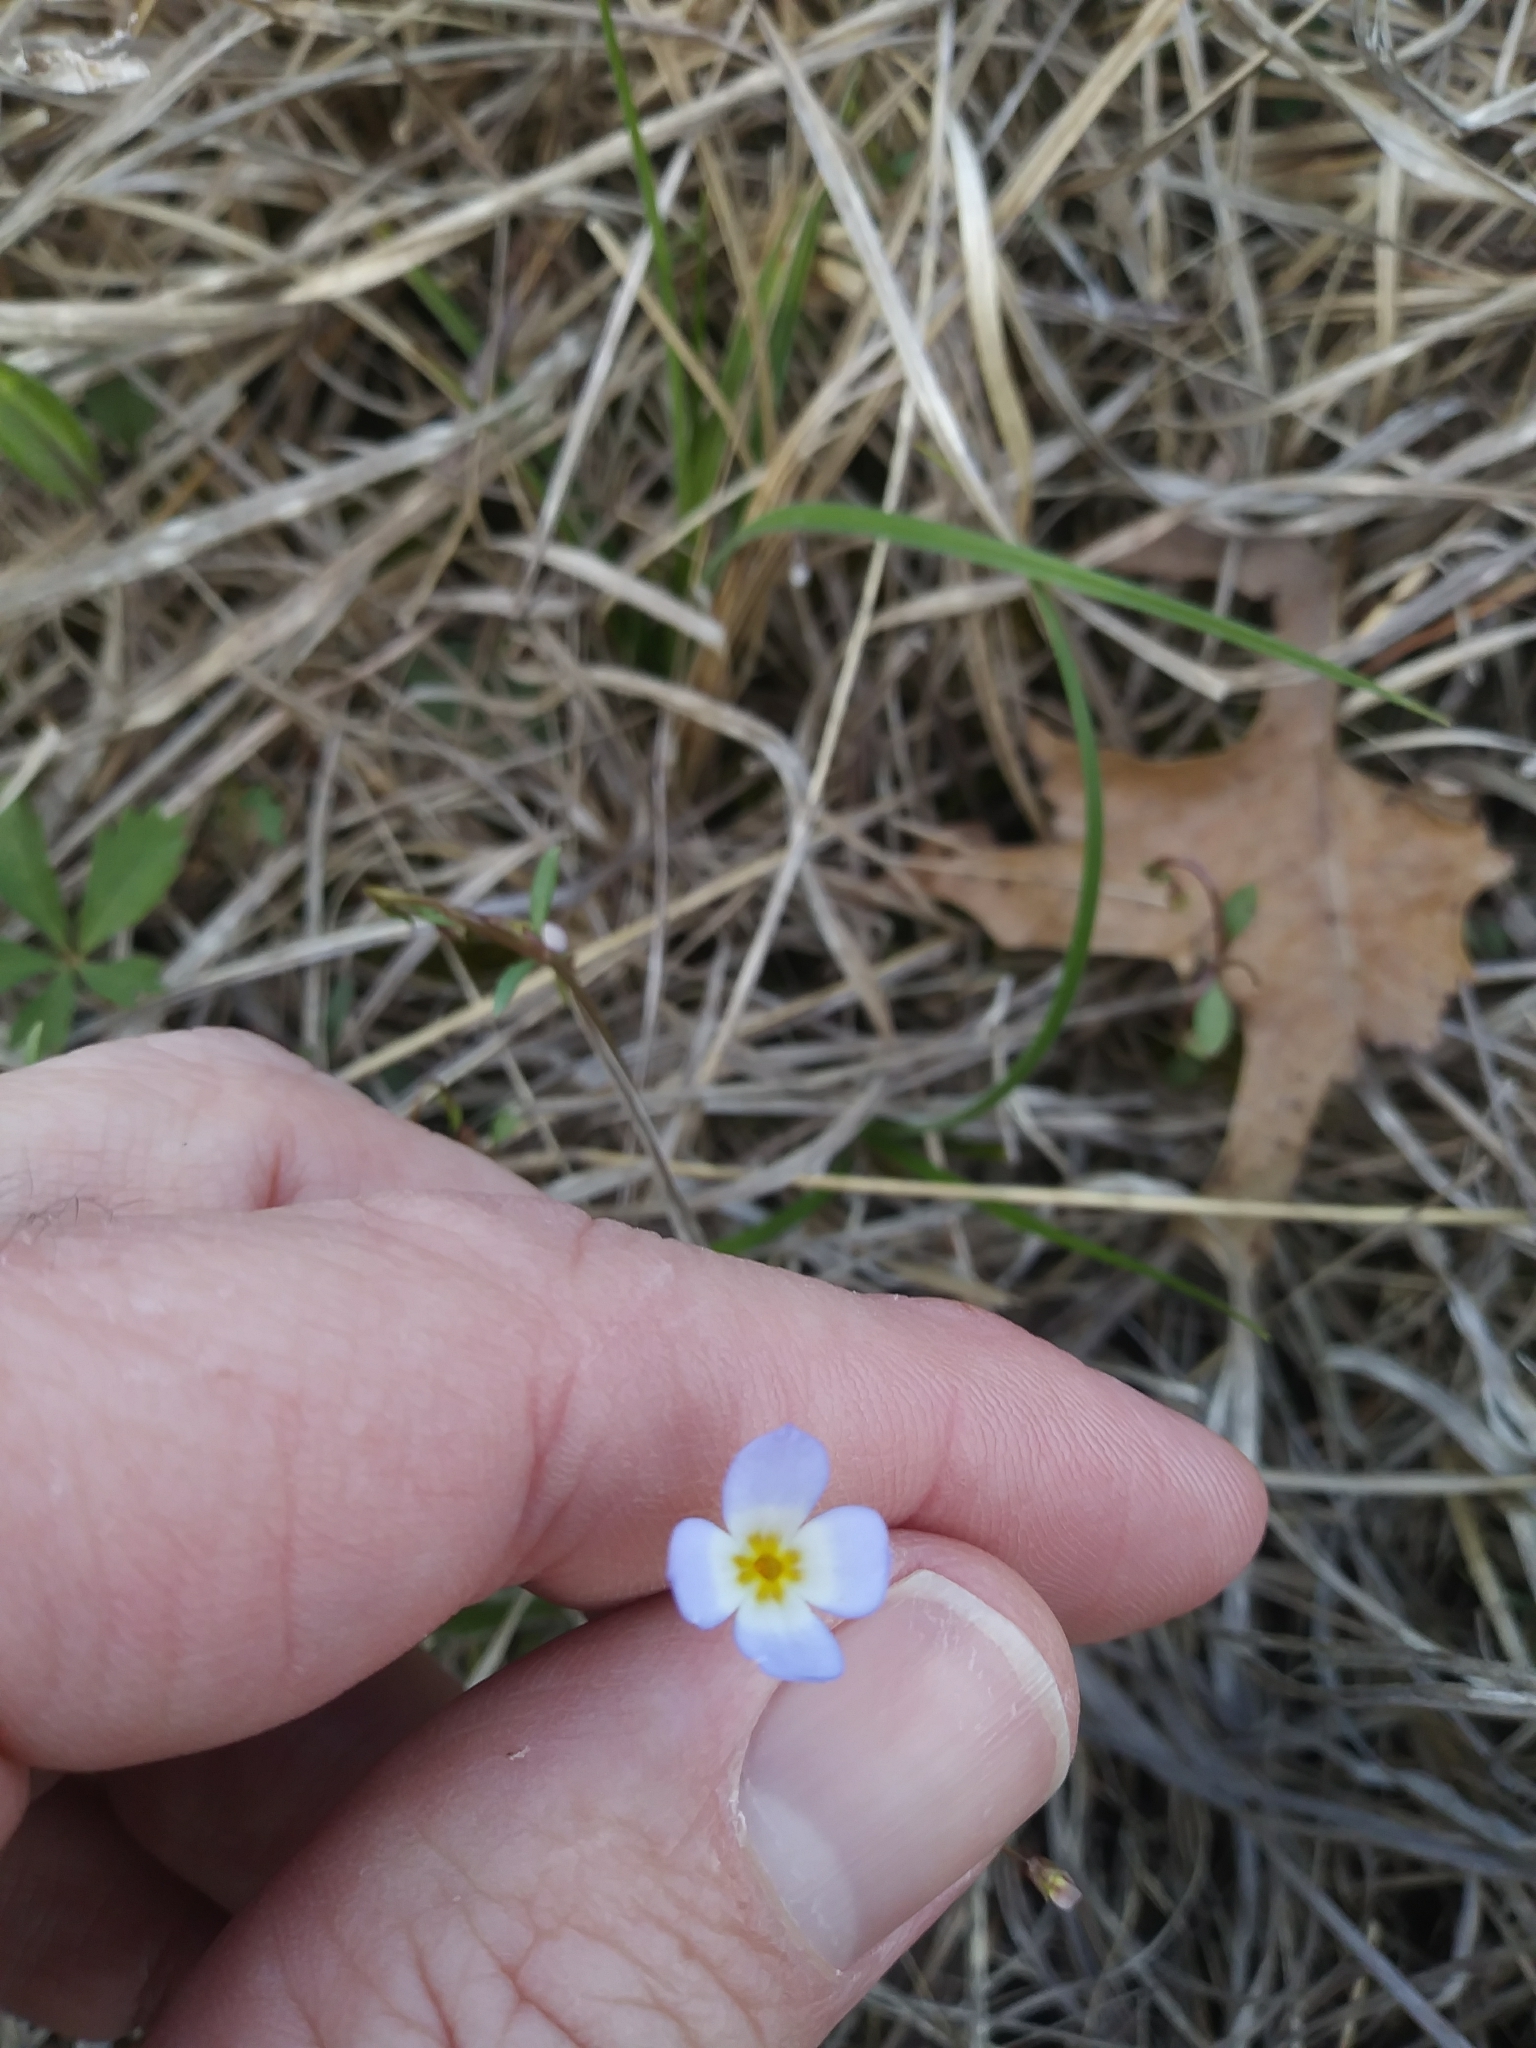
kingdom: Plantae
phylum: Tracheophyta
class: Magnoliopsida
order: Gentianales
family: Rubiaceae
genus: Houstonia
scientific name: Houstonia caerulea
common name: Bluets
